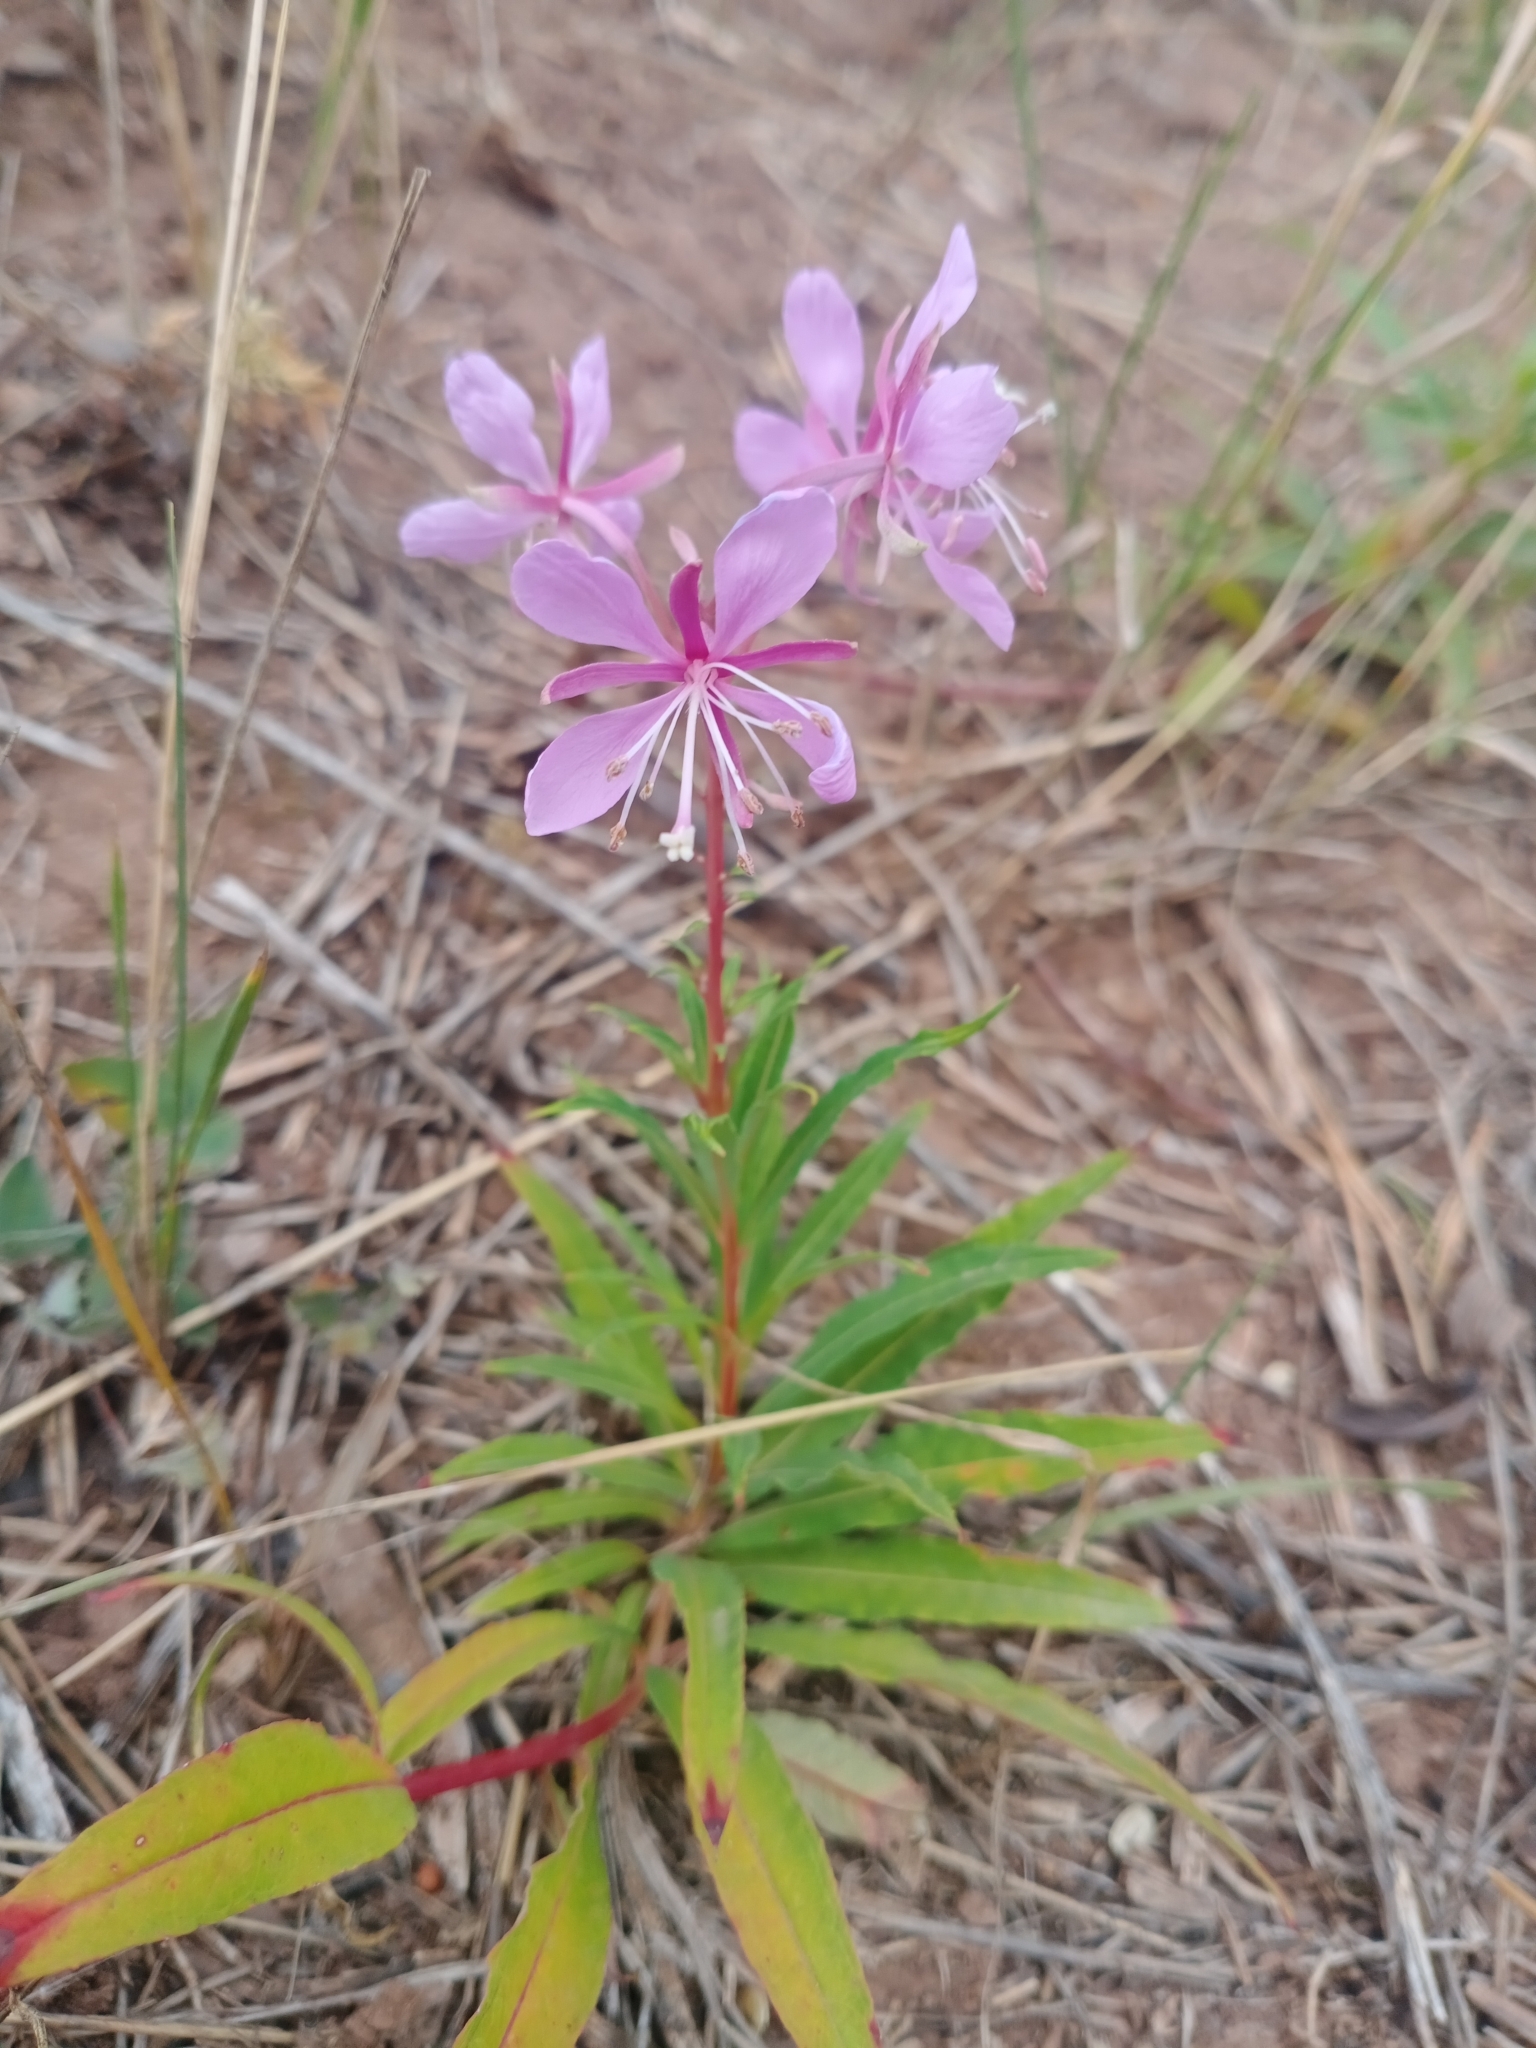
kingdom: Plantae
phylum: Tracheophyta
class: Magnoliopsida
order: Myrtales
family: Onagraceae
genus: Chamaenerion
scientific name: Chamaenerion angustifolium
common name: Fireweed
